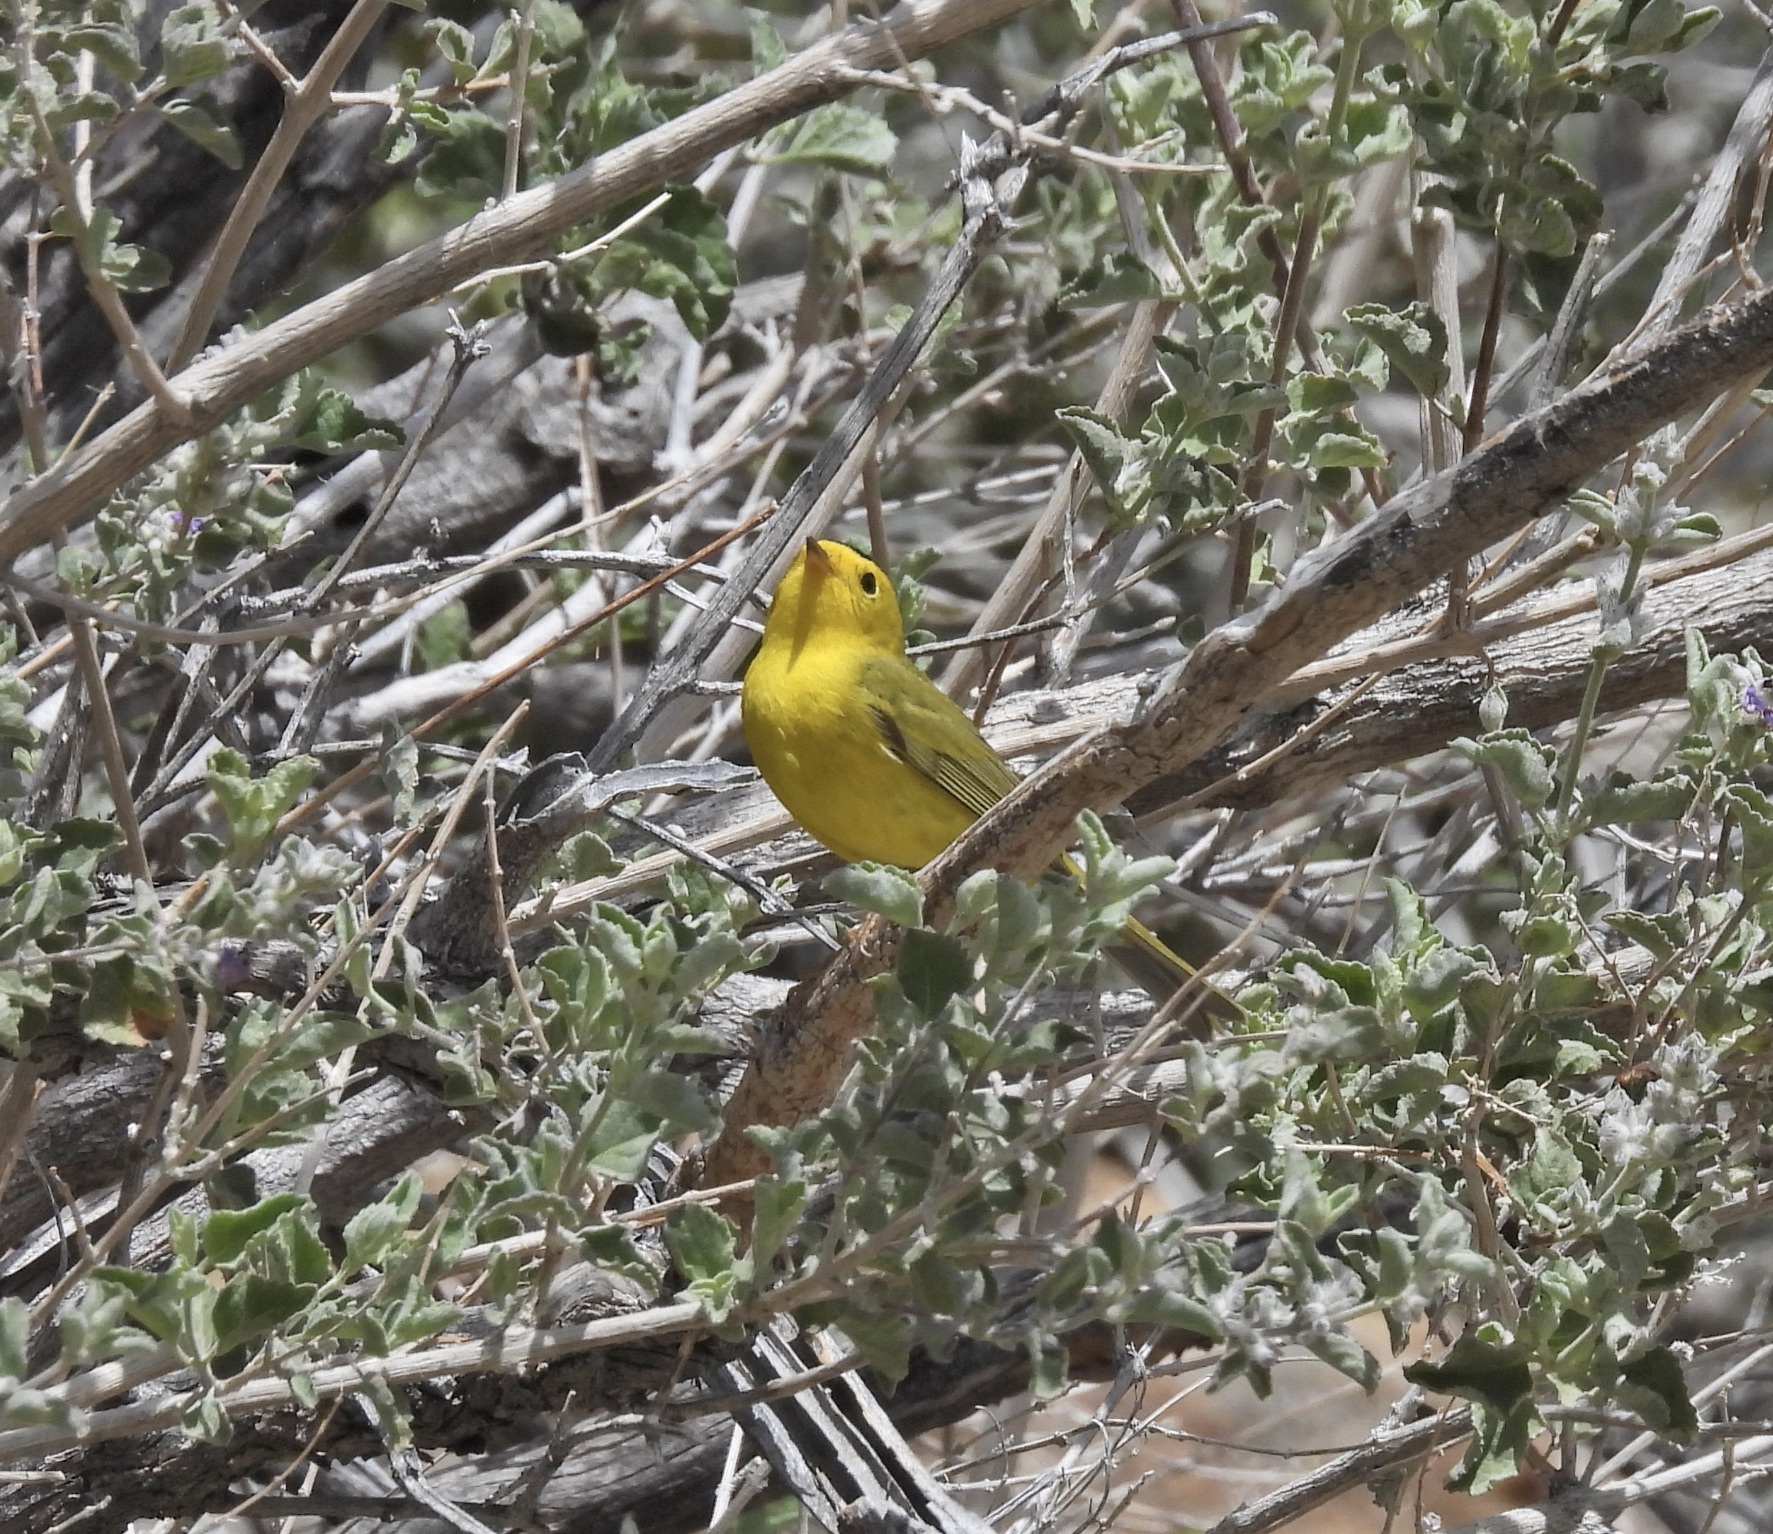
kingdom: Animalia
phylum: Chordata
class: Aves
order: Passeriformes
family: Parulidae
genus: Cardellina
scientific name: Cardellina pusilla
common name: Wilson's warbler
